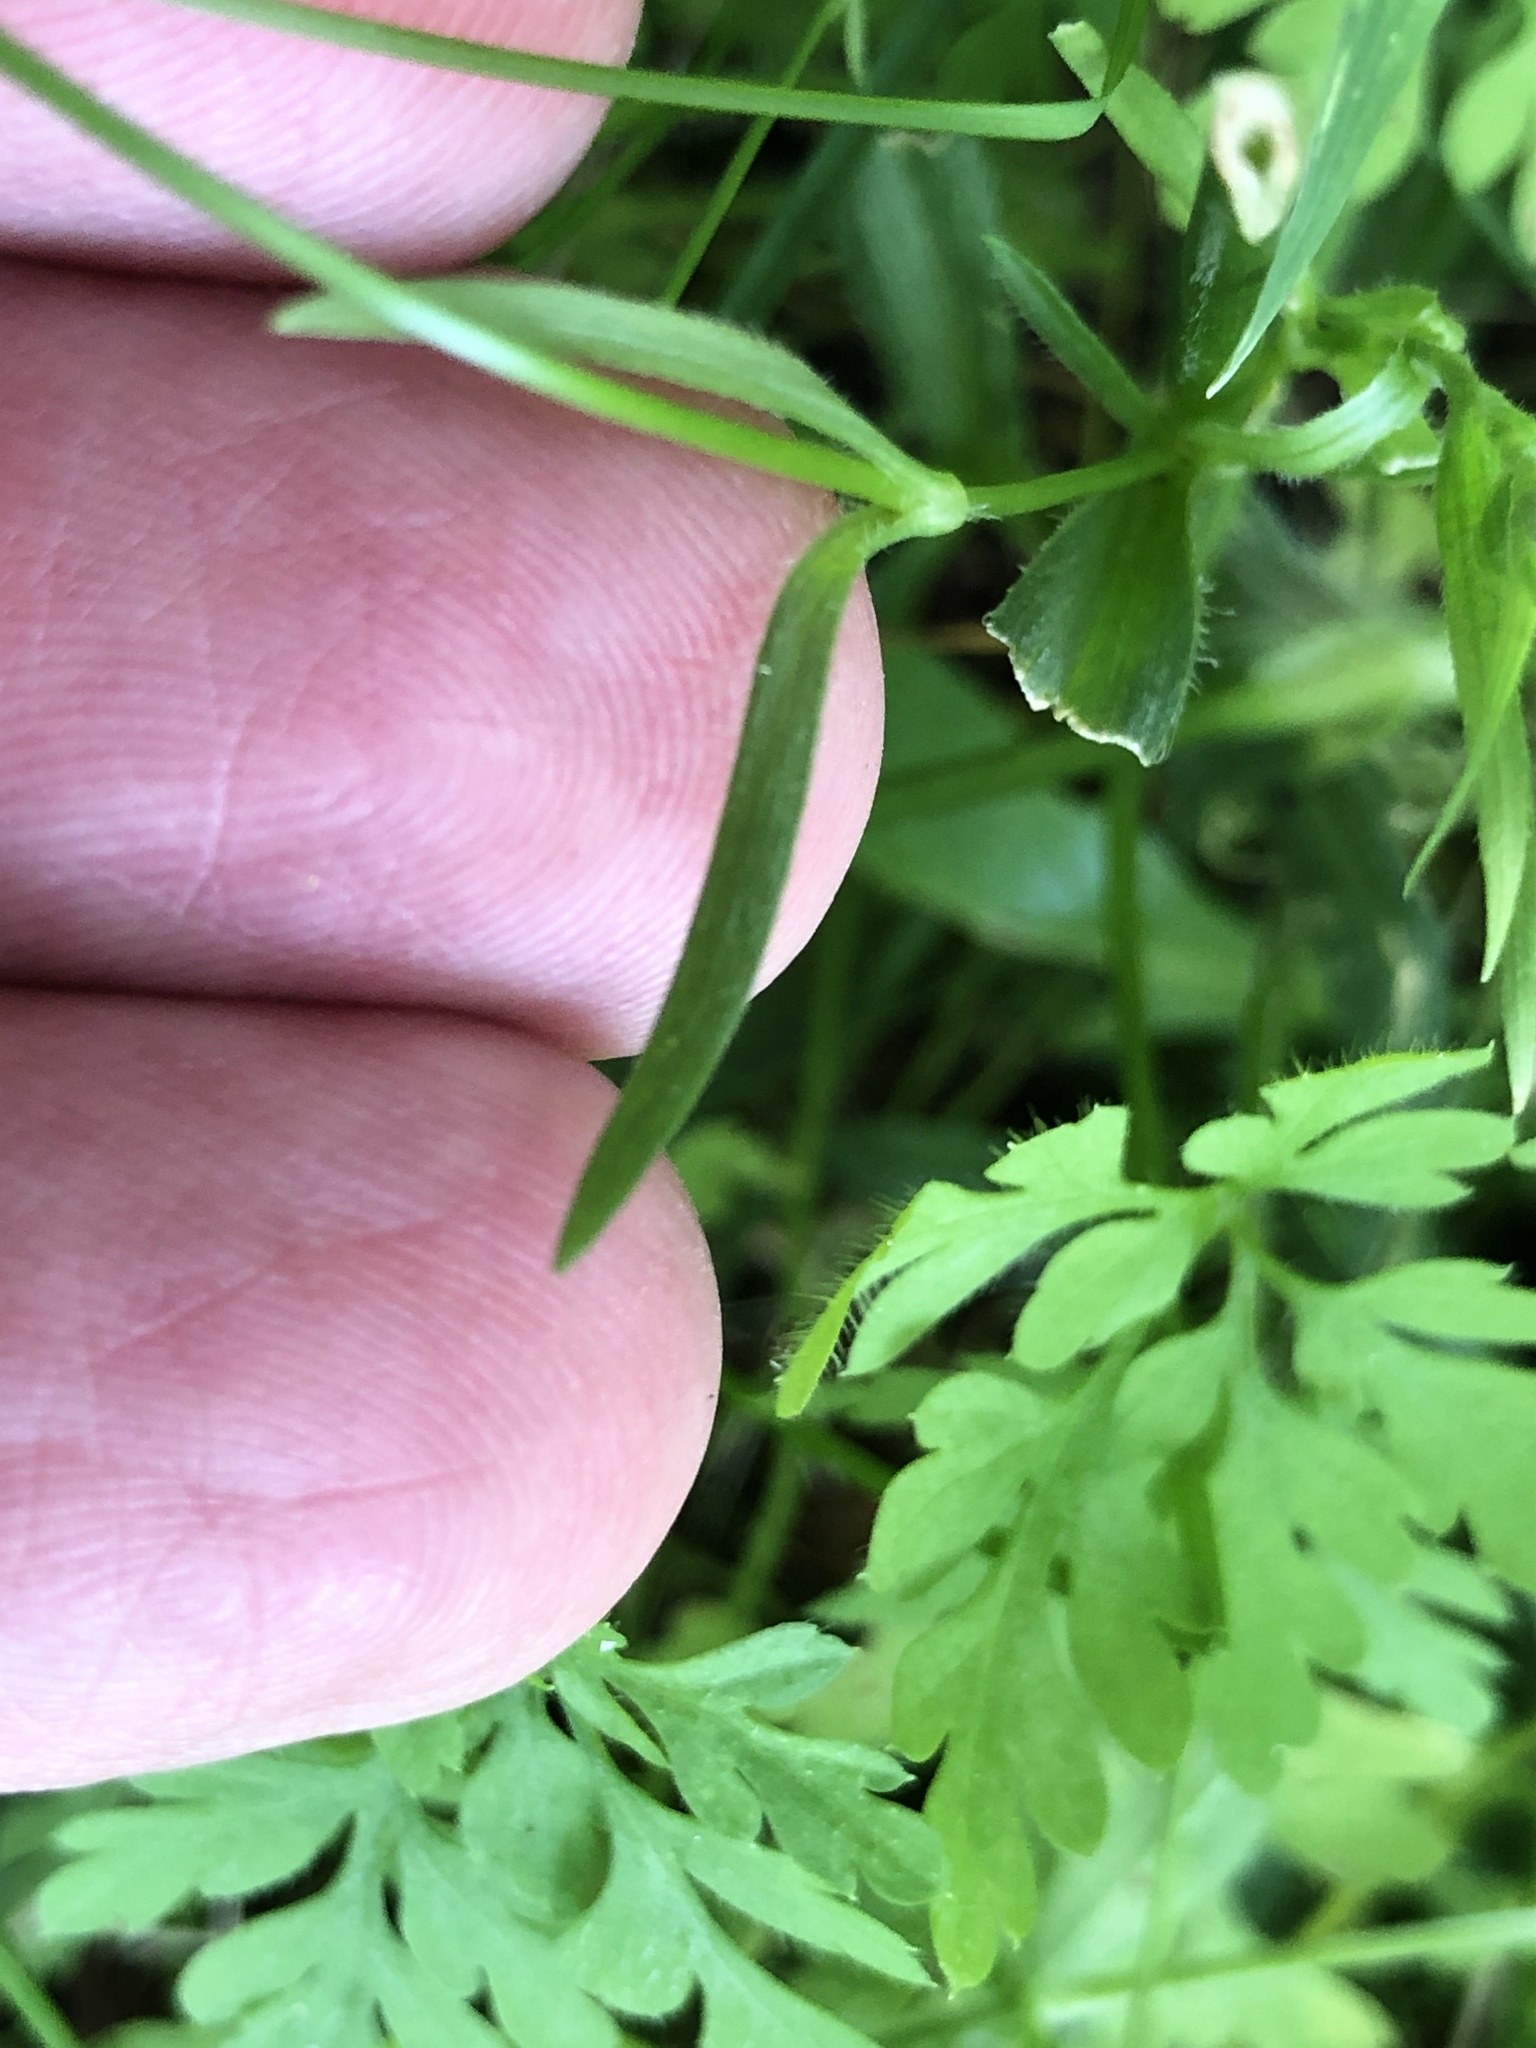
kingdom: Plantae
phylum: Tracheophyta
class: Magnoliopsida
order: Caryophyllales
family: Caryophyllaceae
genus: Dianthus
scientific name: Dianthus armeria
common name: Deptford pink
